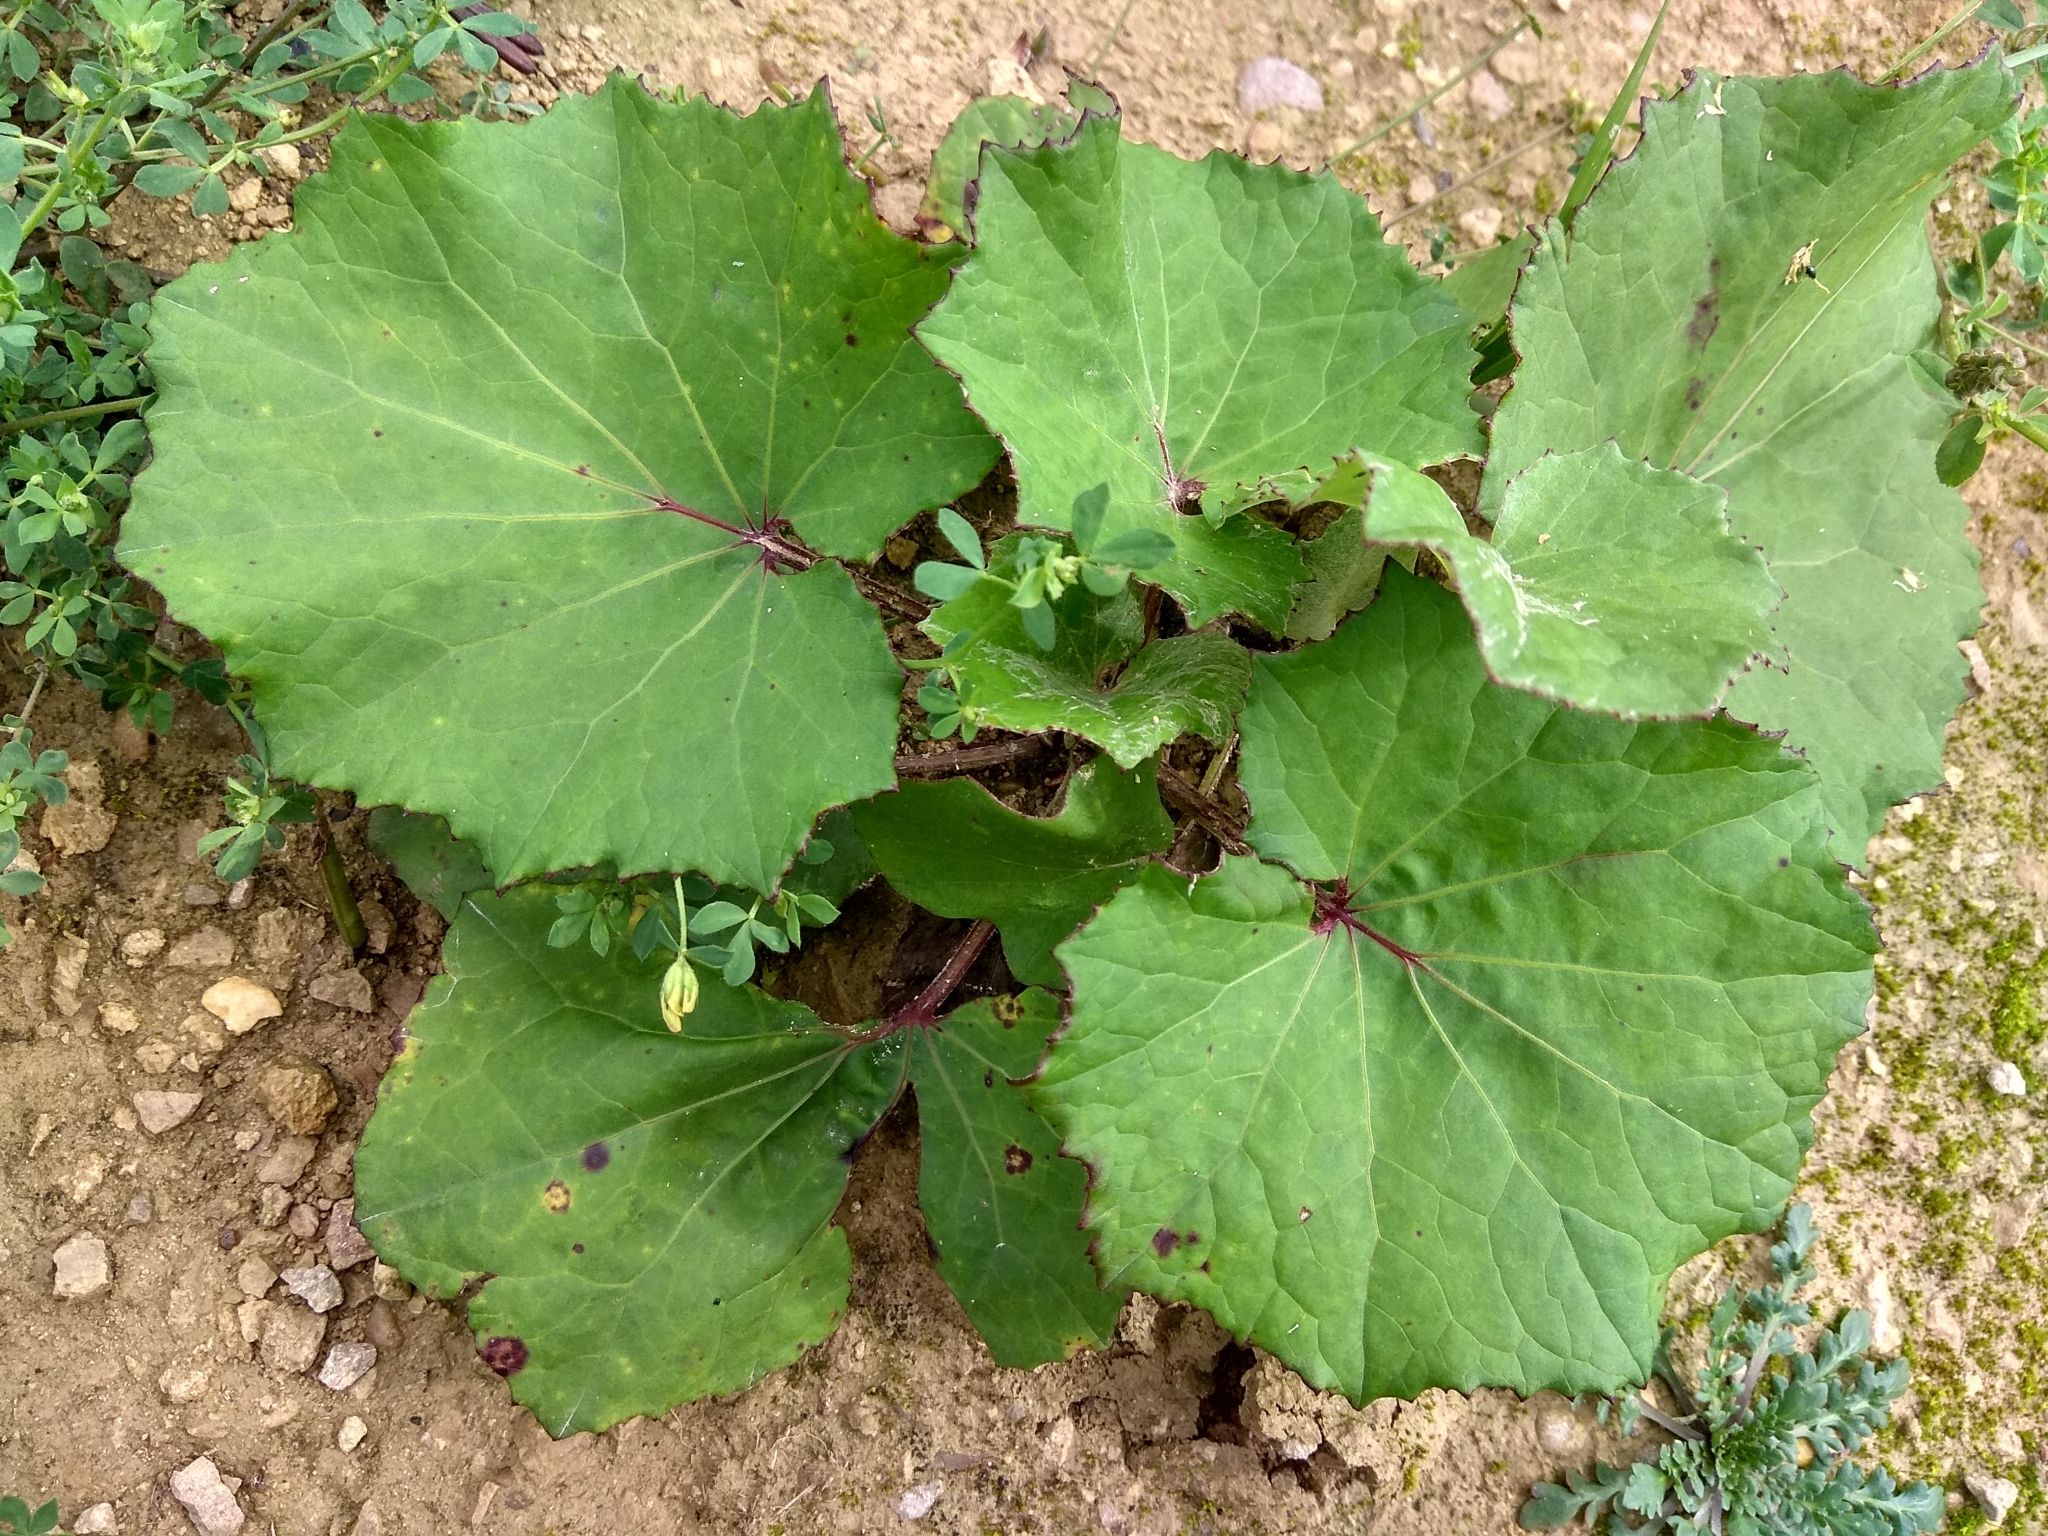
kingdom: Plantae
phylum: Tracheophyta
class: Magnoliopsida
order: Asterales
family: Asteraceae
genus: Tussilago
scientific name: Tussilago farfara
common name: Coltsfoot
